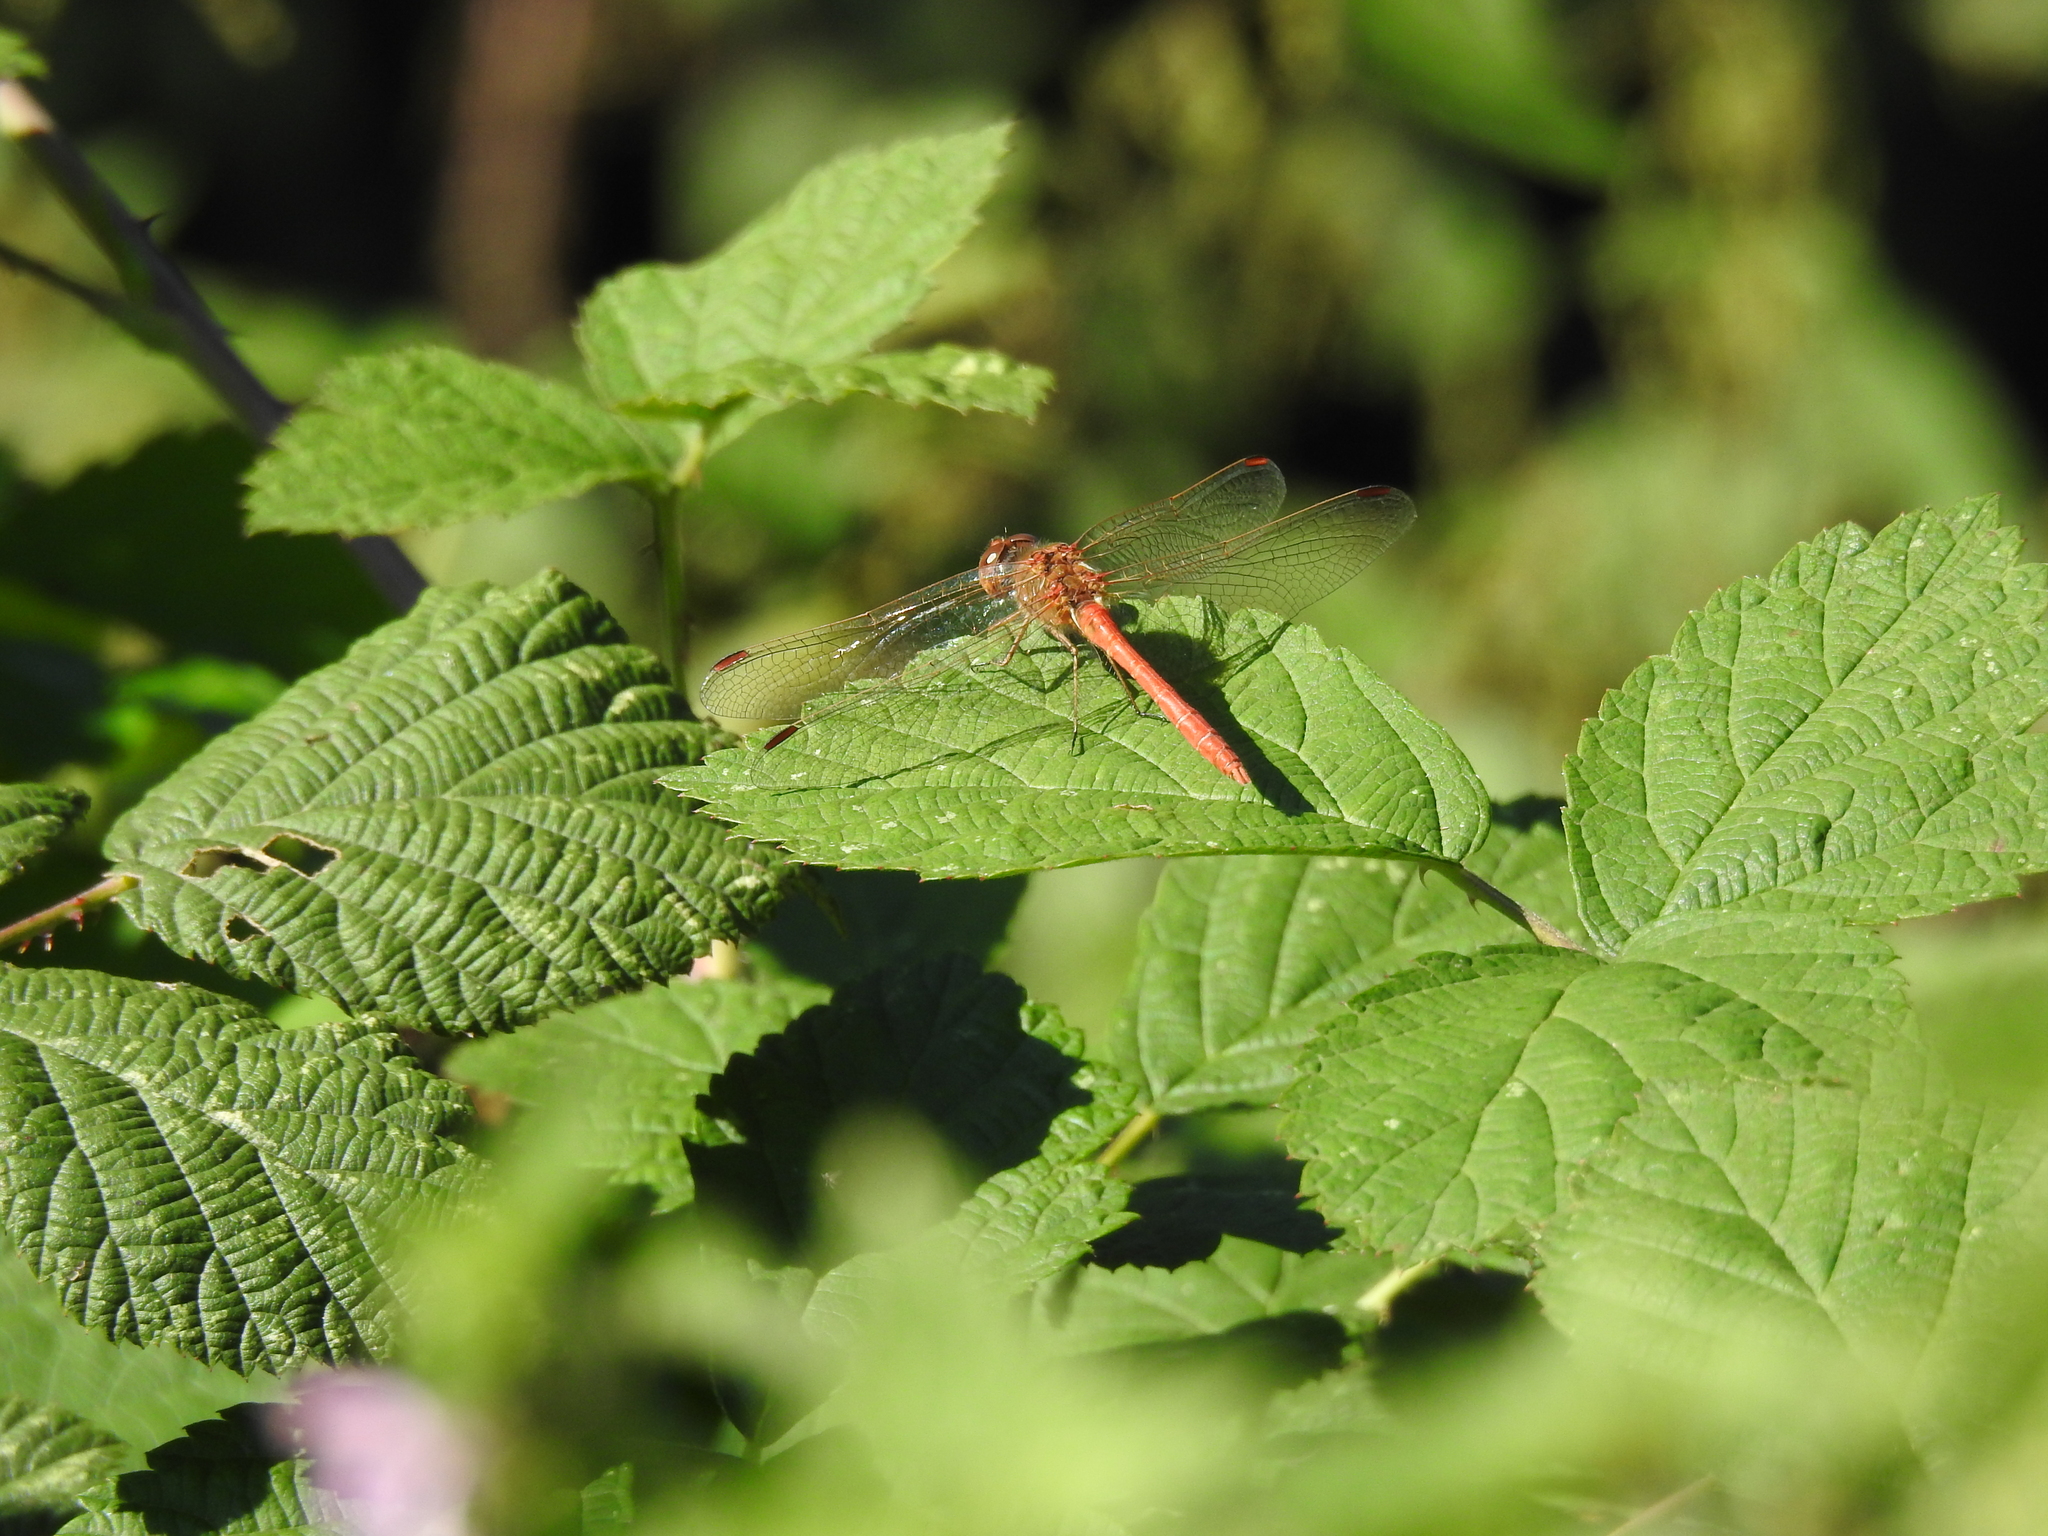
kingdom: Animalia
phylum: Arthropoda
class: Insecta
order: Odonata
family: Libellulidae
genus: Sympetrum
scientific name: Sympetrum striolatum
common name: Common darter
